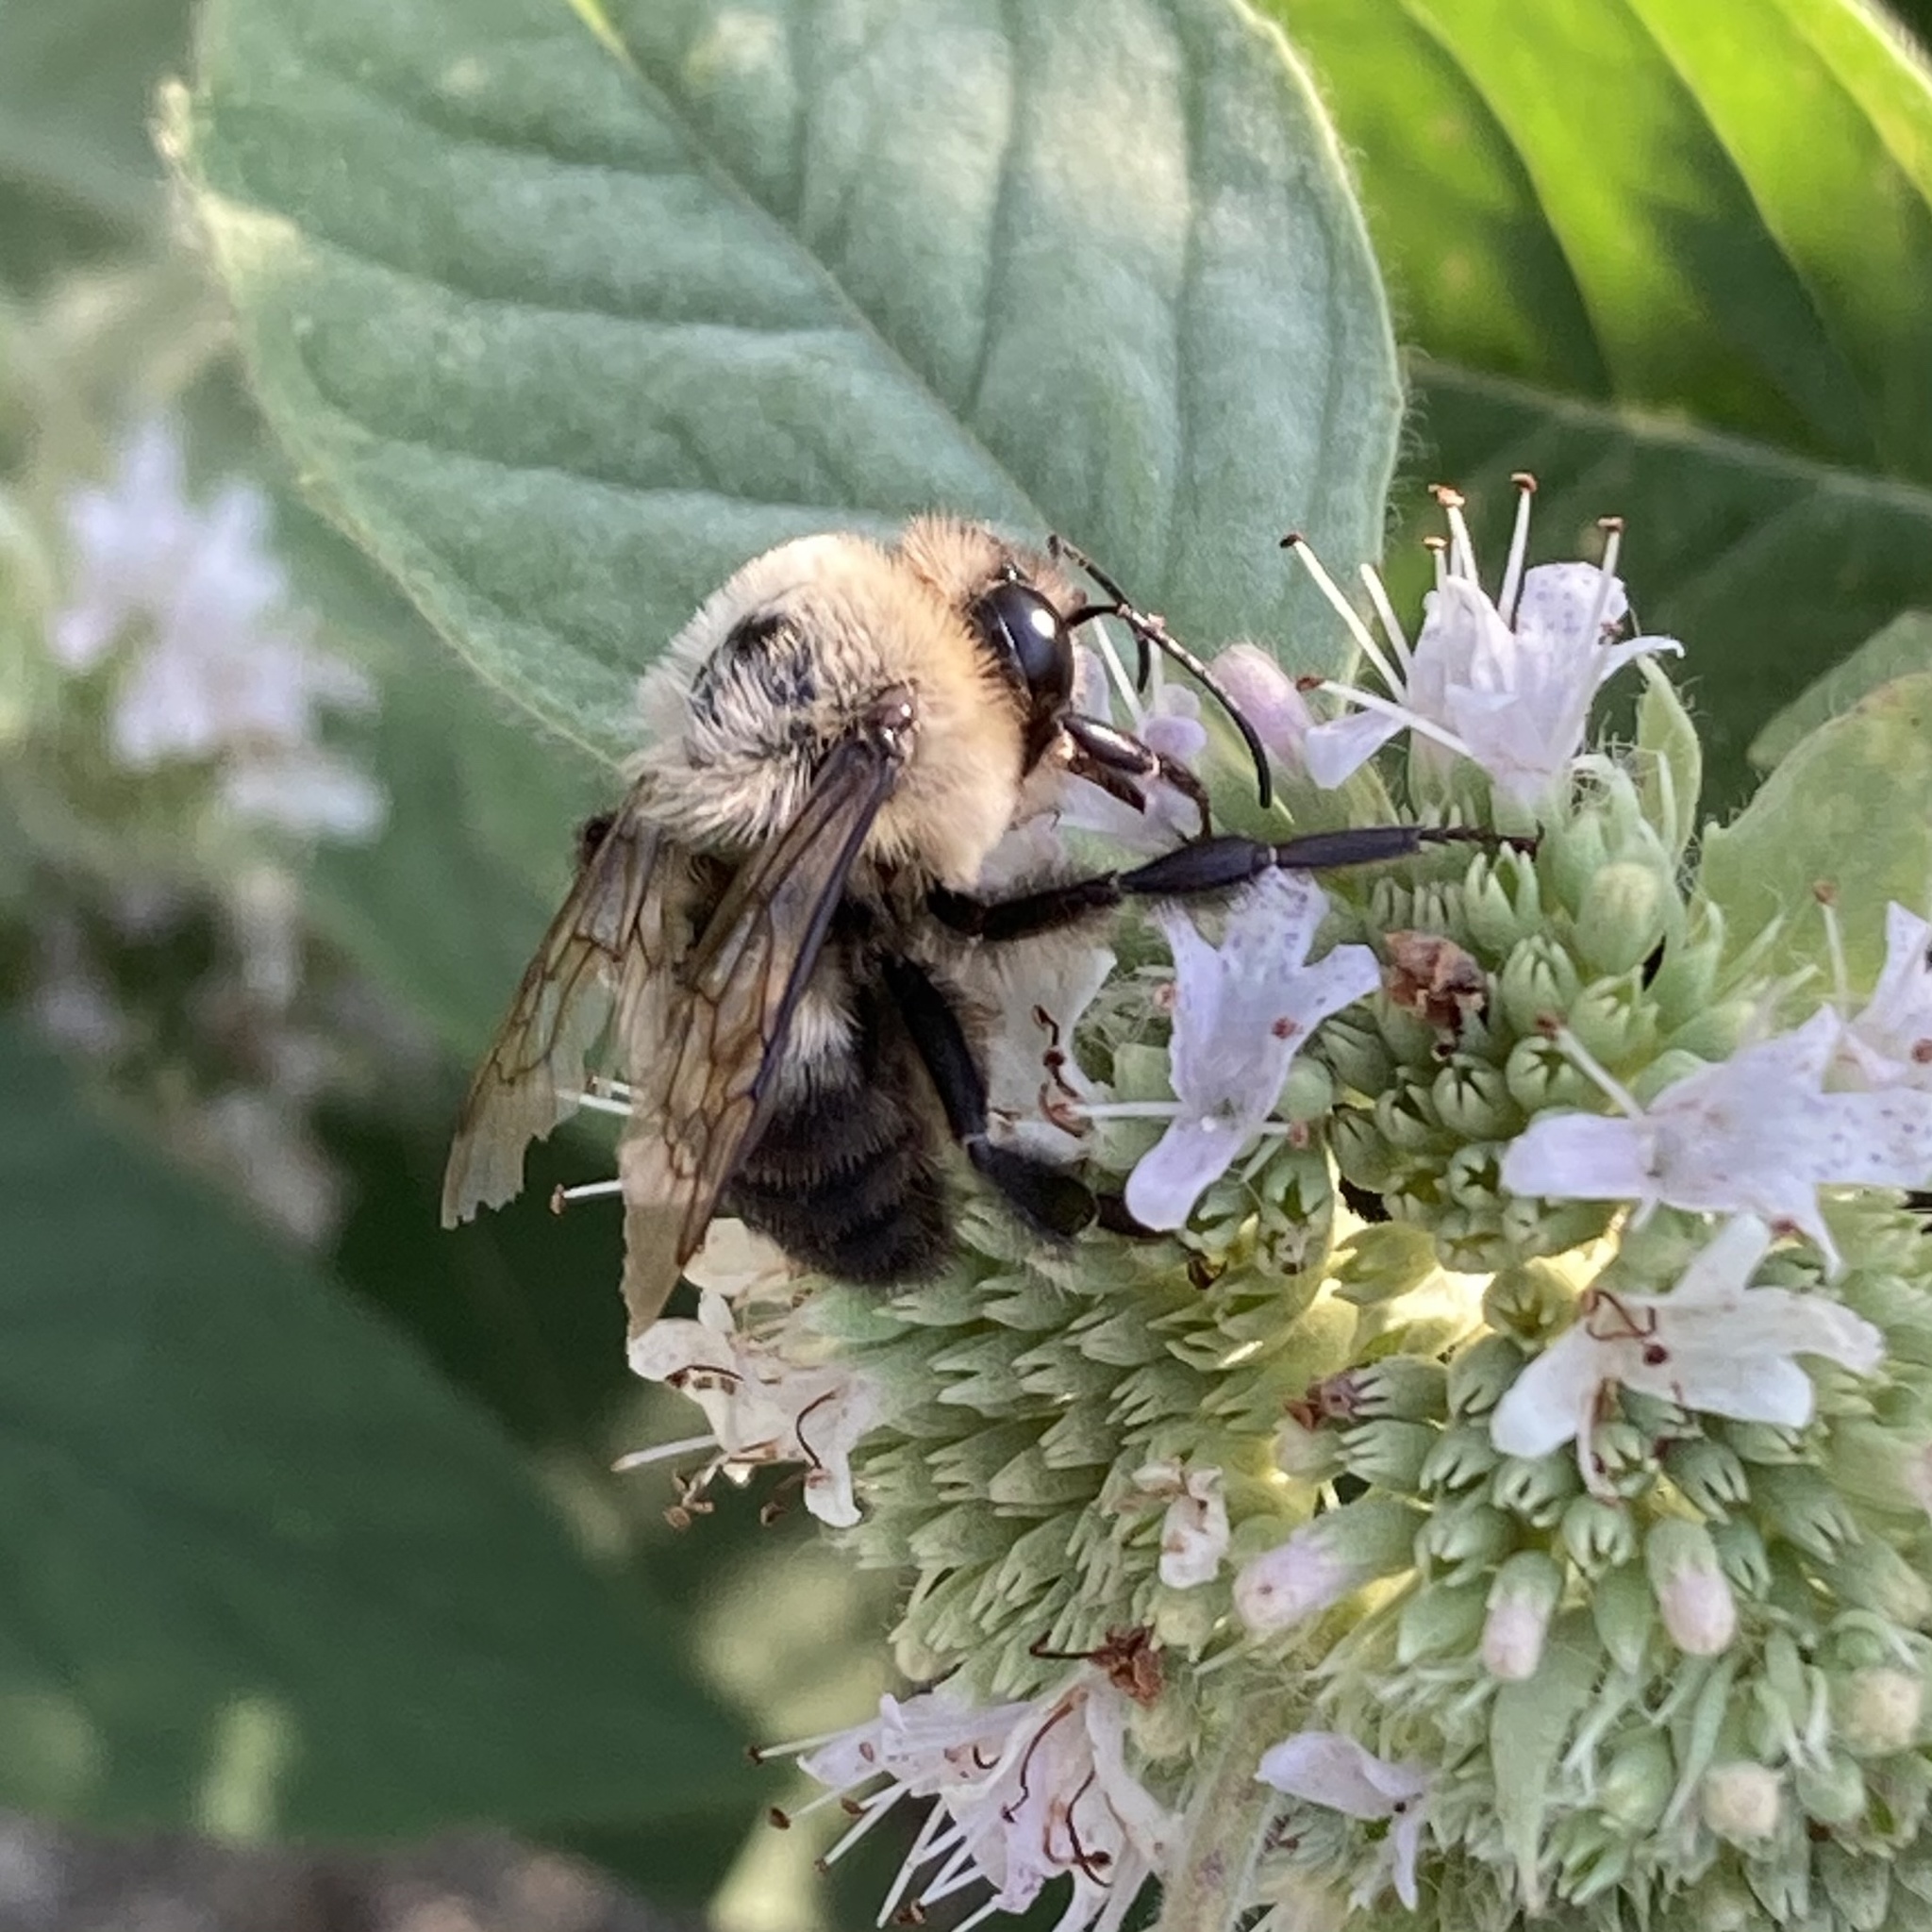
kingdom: Animalia
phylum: Arthropoda
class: Insecta
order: Hymenoptera
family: Apidae
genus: Bombus
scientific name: Bombus griseocollis
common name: Brown-belted bumble bee
